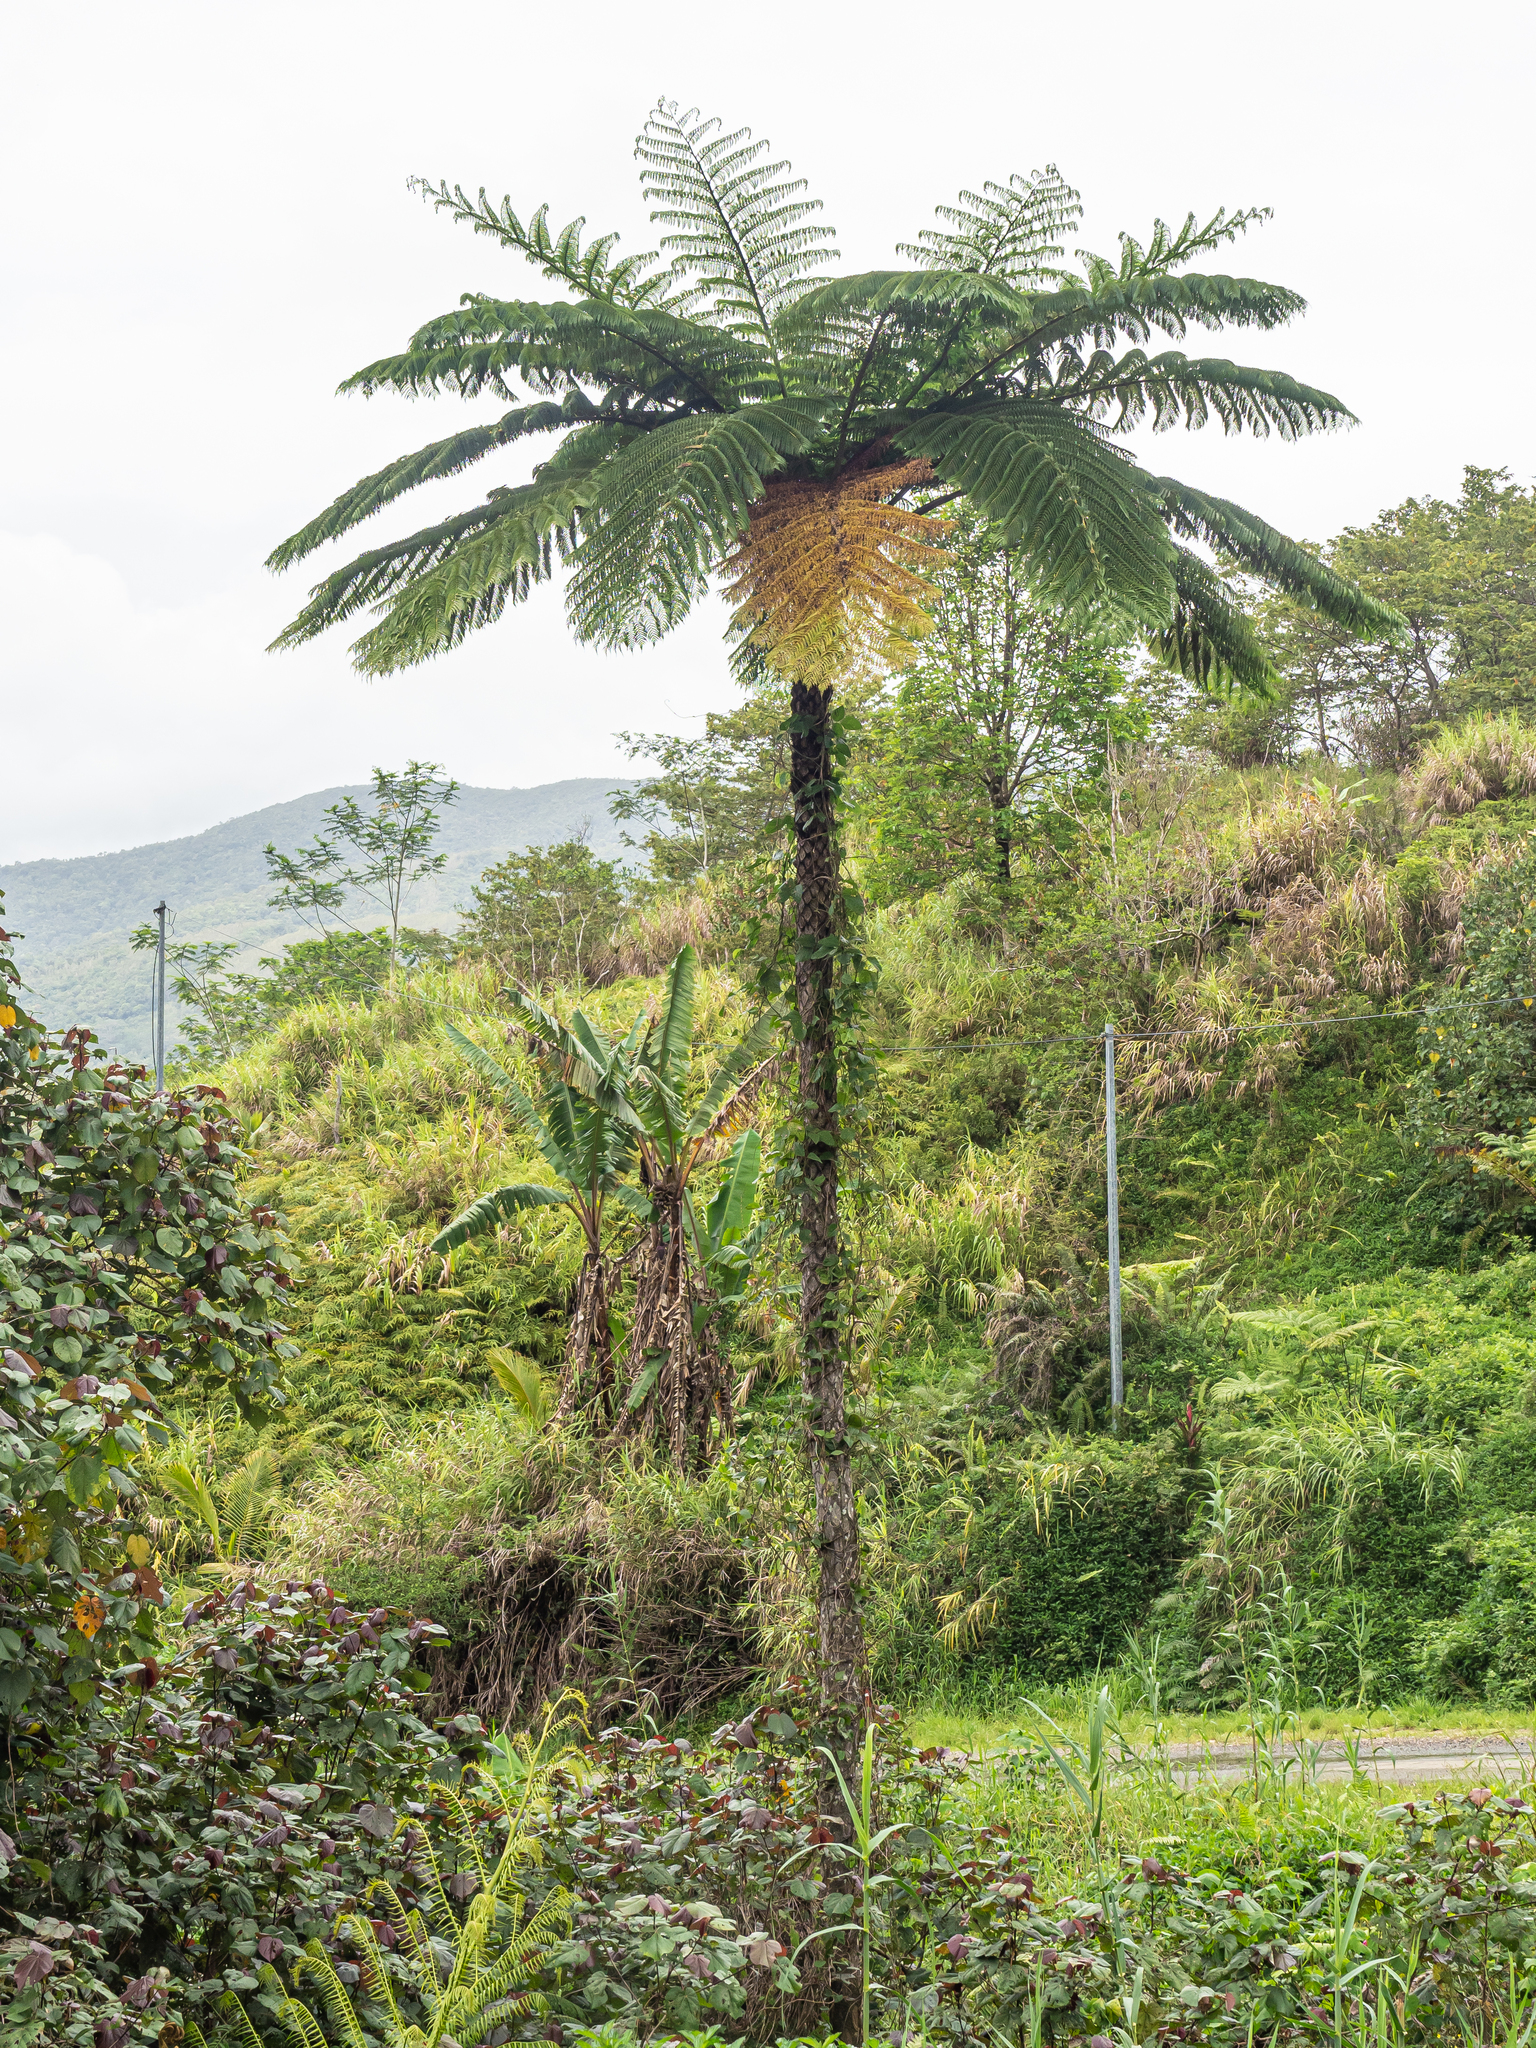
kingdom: Plantae
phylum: Tracheophyta
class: Polypodiopsida
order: Cyatheales
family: Cyatheaceae
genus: Sphaeropteris
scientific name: Sphaeropteris intermedia
